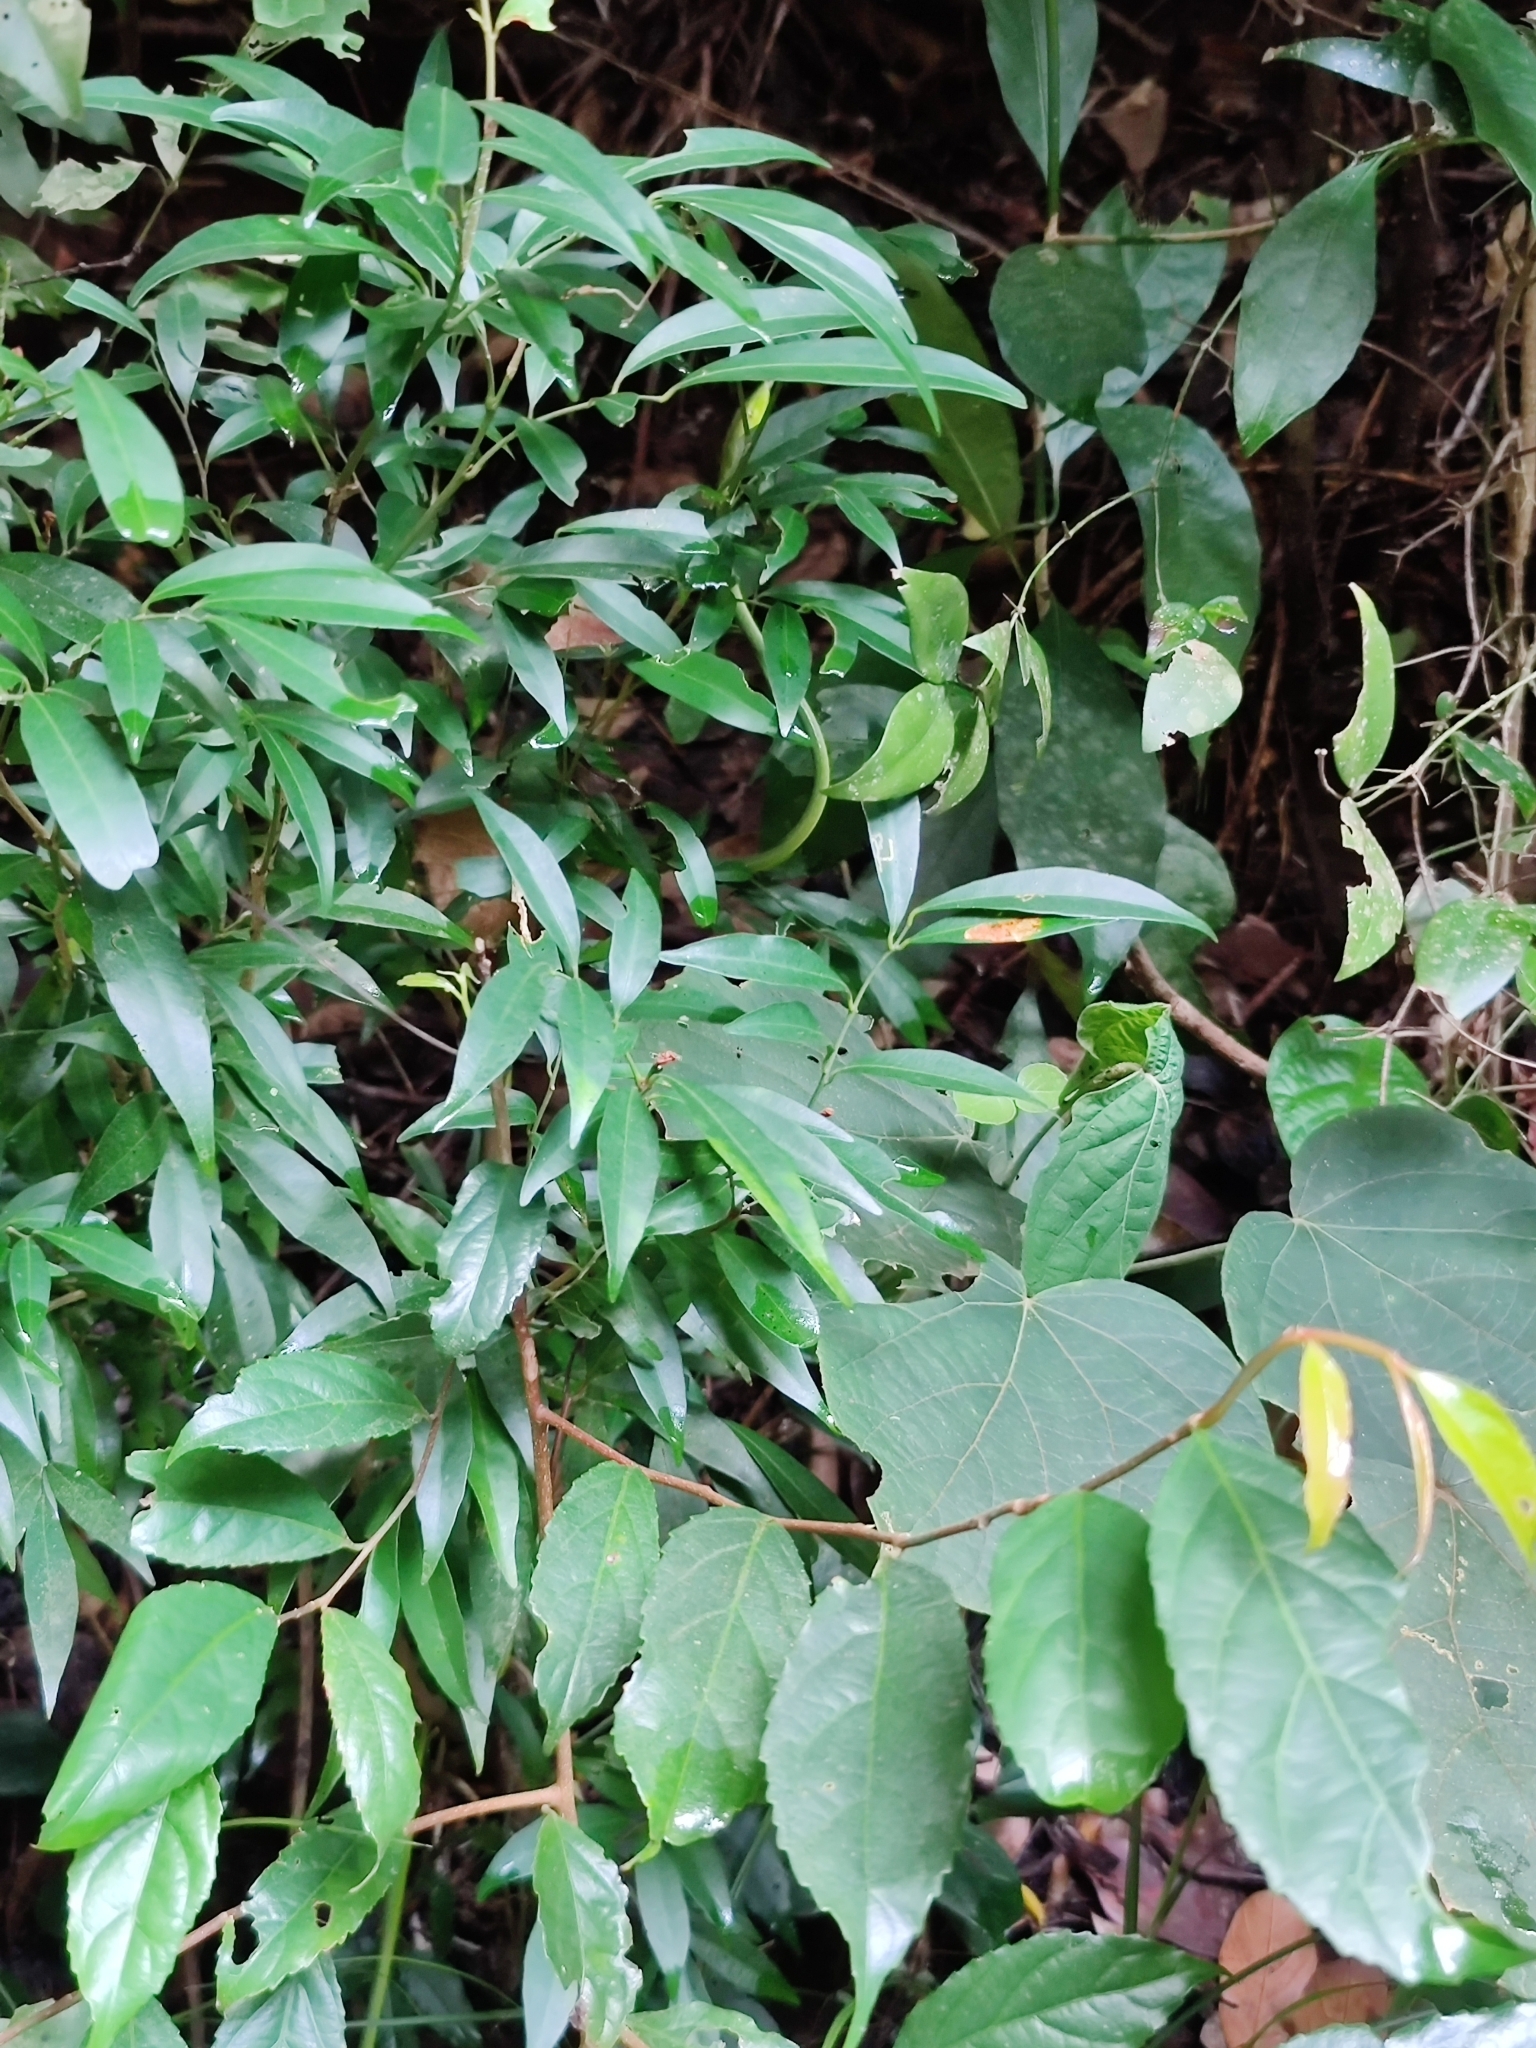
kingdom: Animalia
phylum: Chordata
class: Squamata
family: Colubridae
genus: Ahaetulla
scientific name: Ahaetulla isabellina
